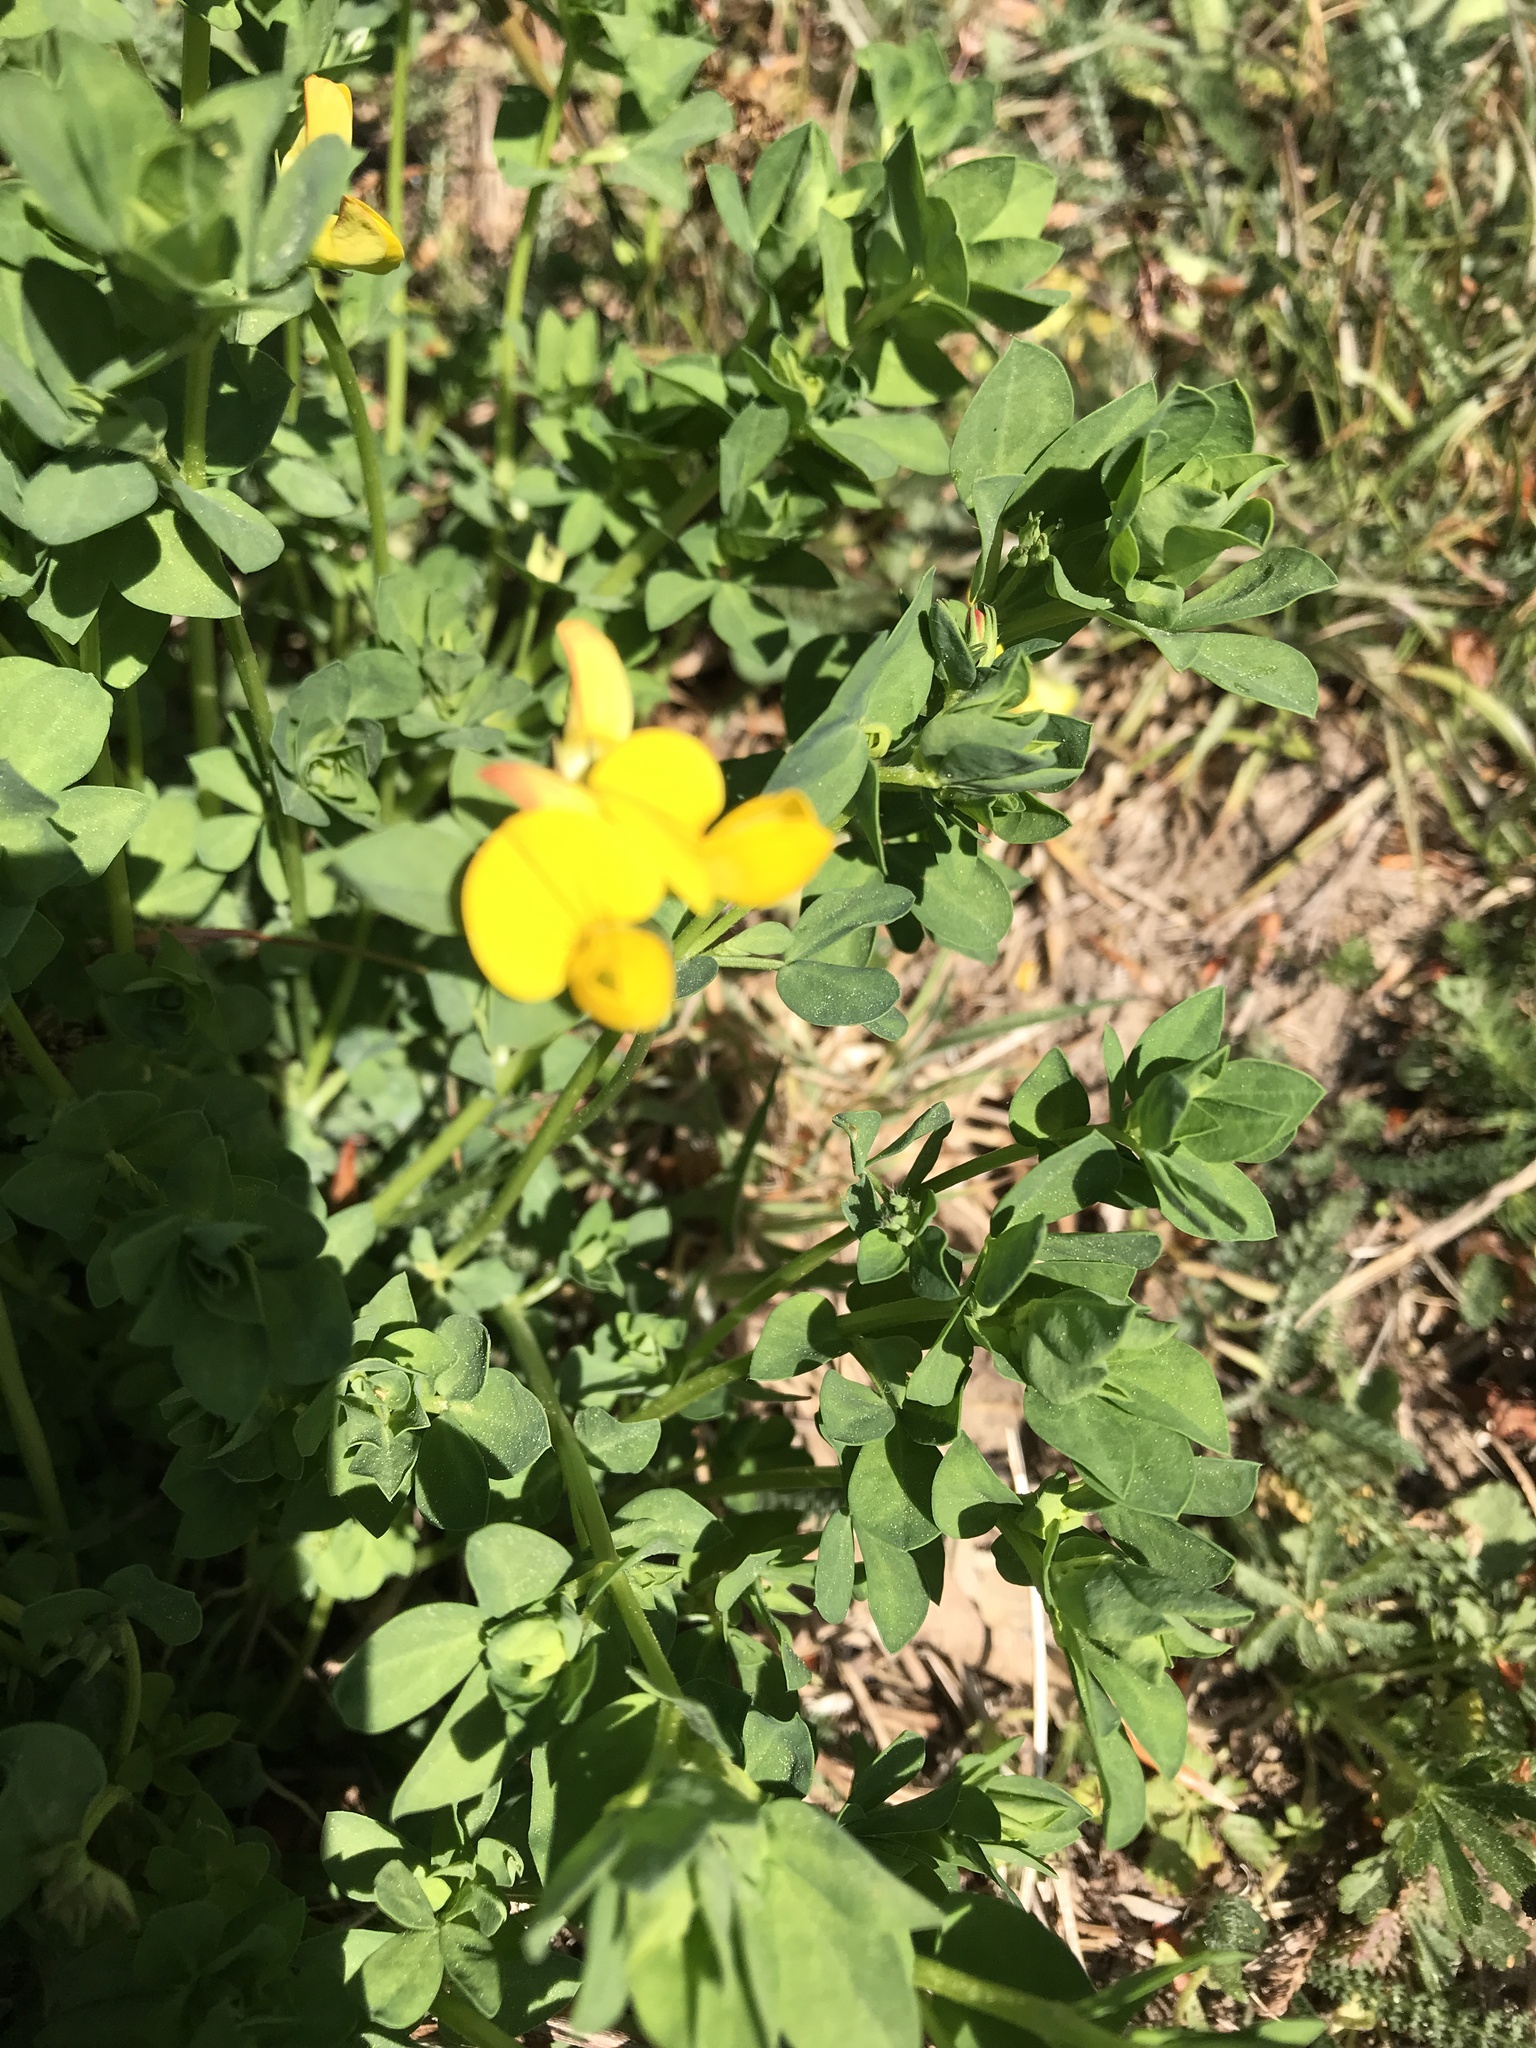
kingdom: Plantae
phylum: Tracheophyta
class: Magnoliopsida
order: Fabales
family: Fabaceae
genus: Lotus
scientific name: Lotus corniculatus
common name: Common bird's-foot-trefoil
